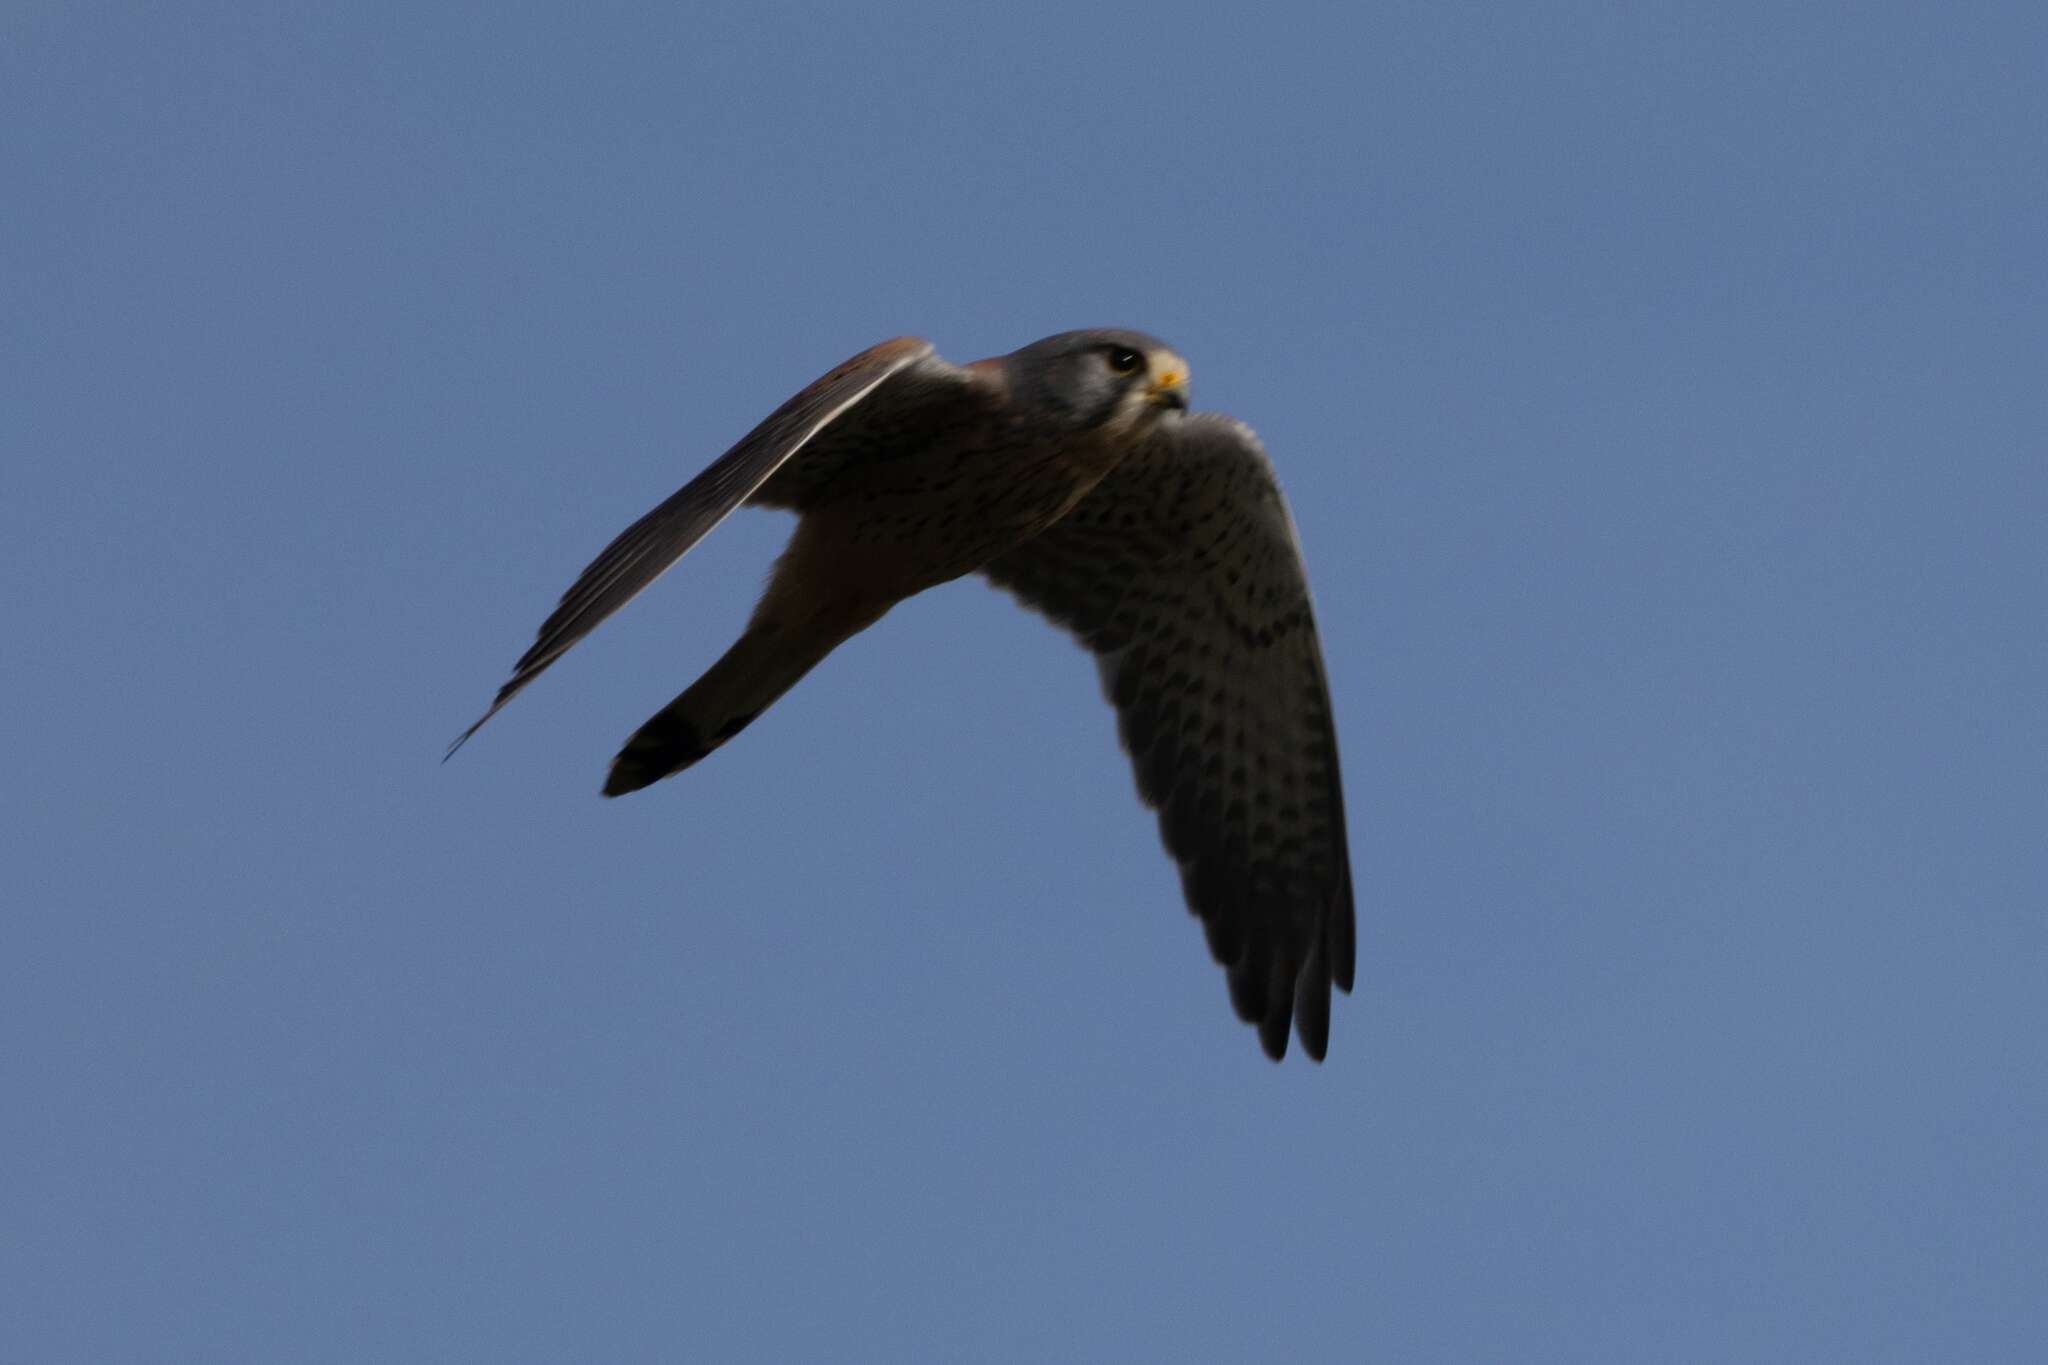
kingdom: Animalia
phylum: Chordata
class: Aves
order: Falconiformes
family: Falconidae
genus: Falco
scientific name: Falco tinnunculus
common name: Common kestrel
